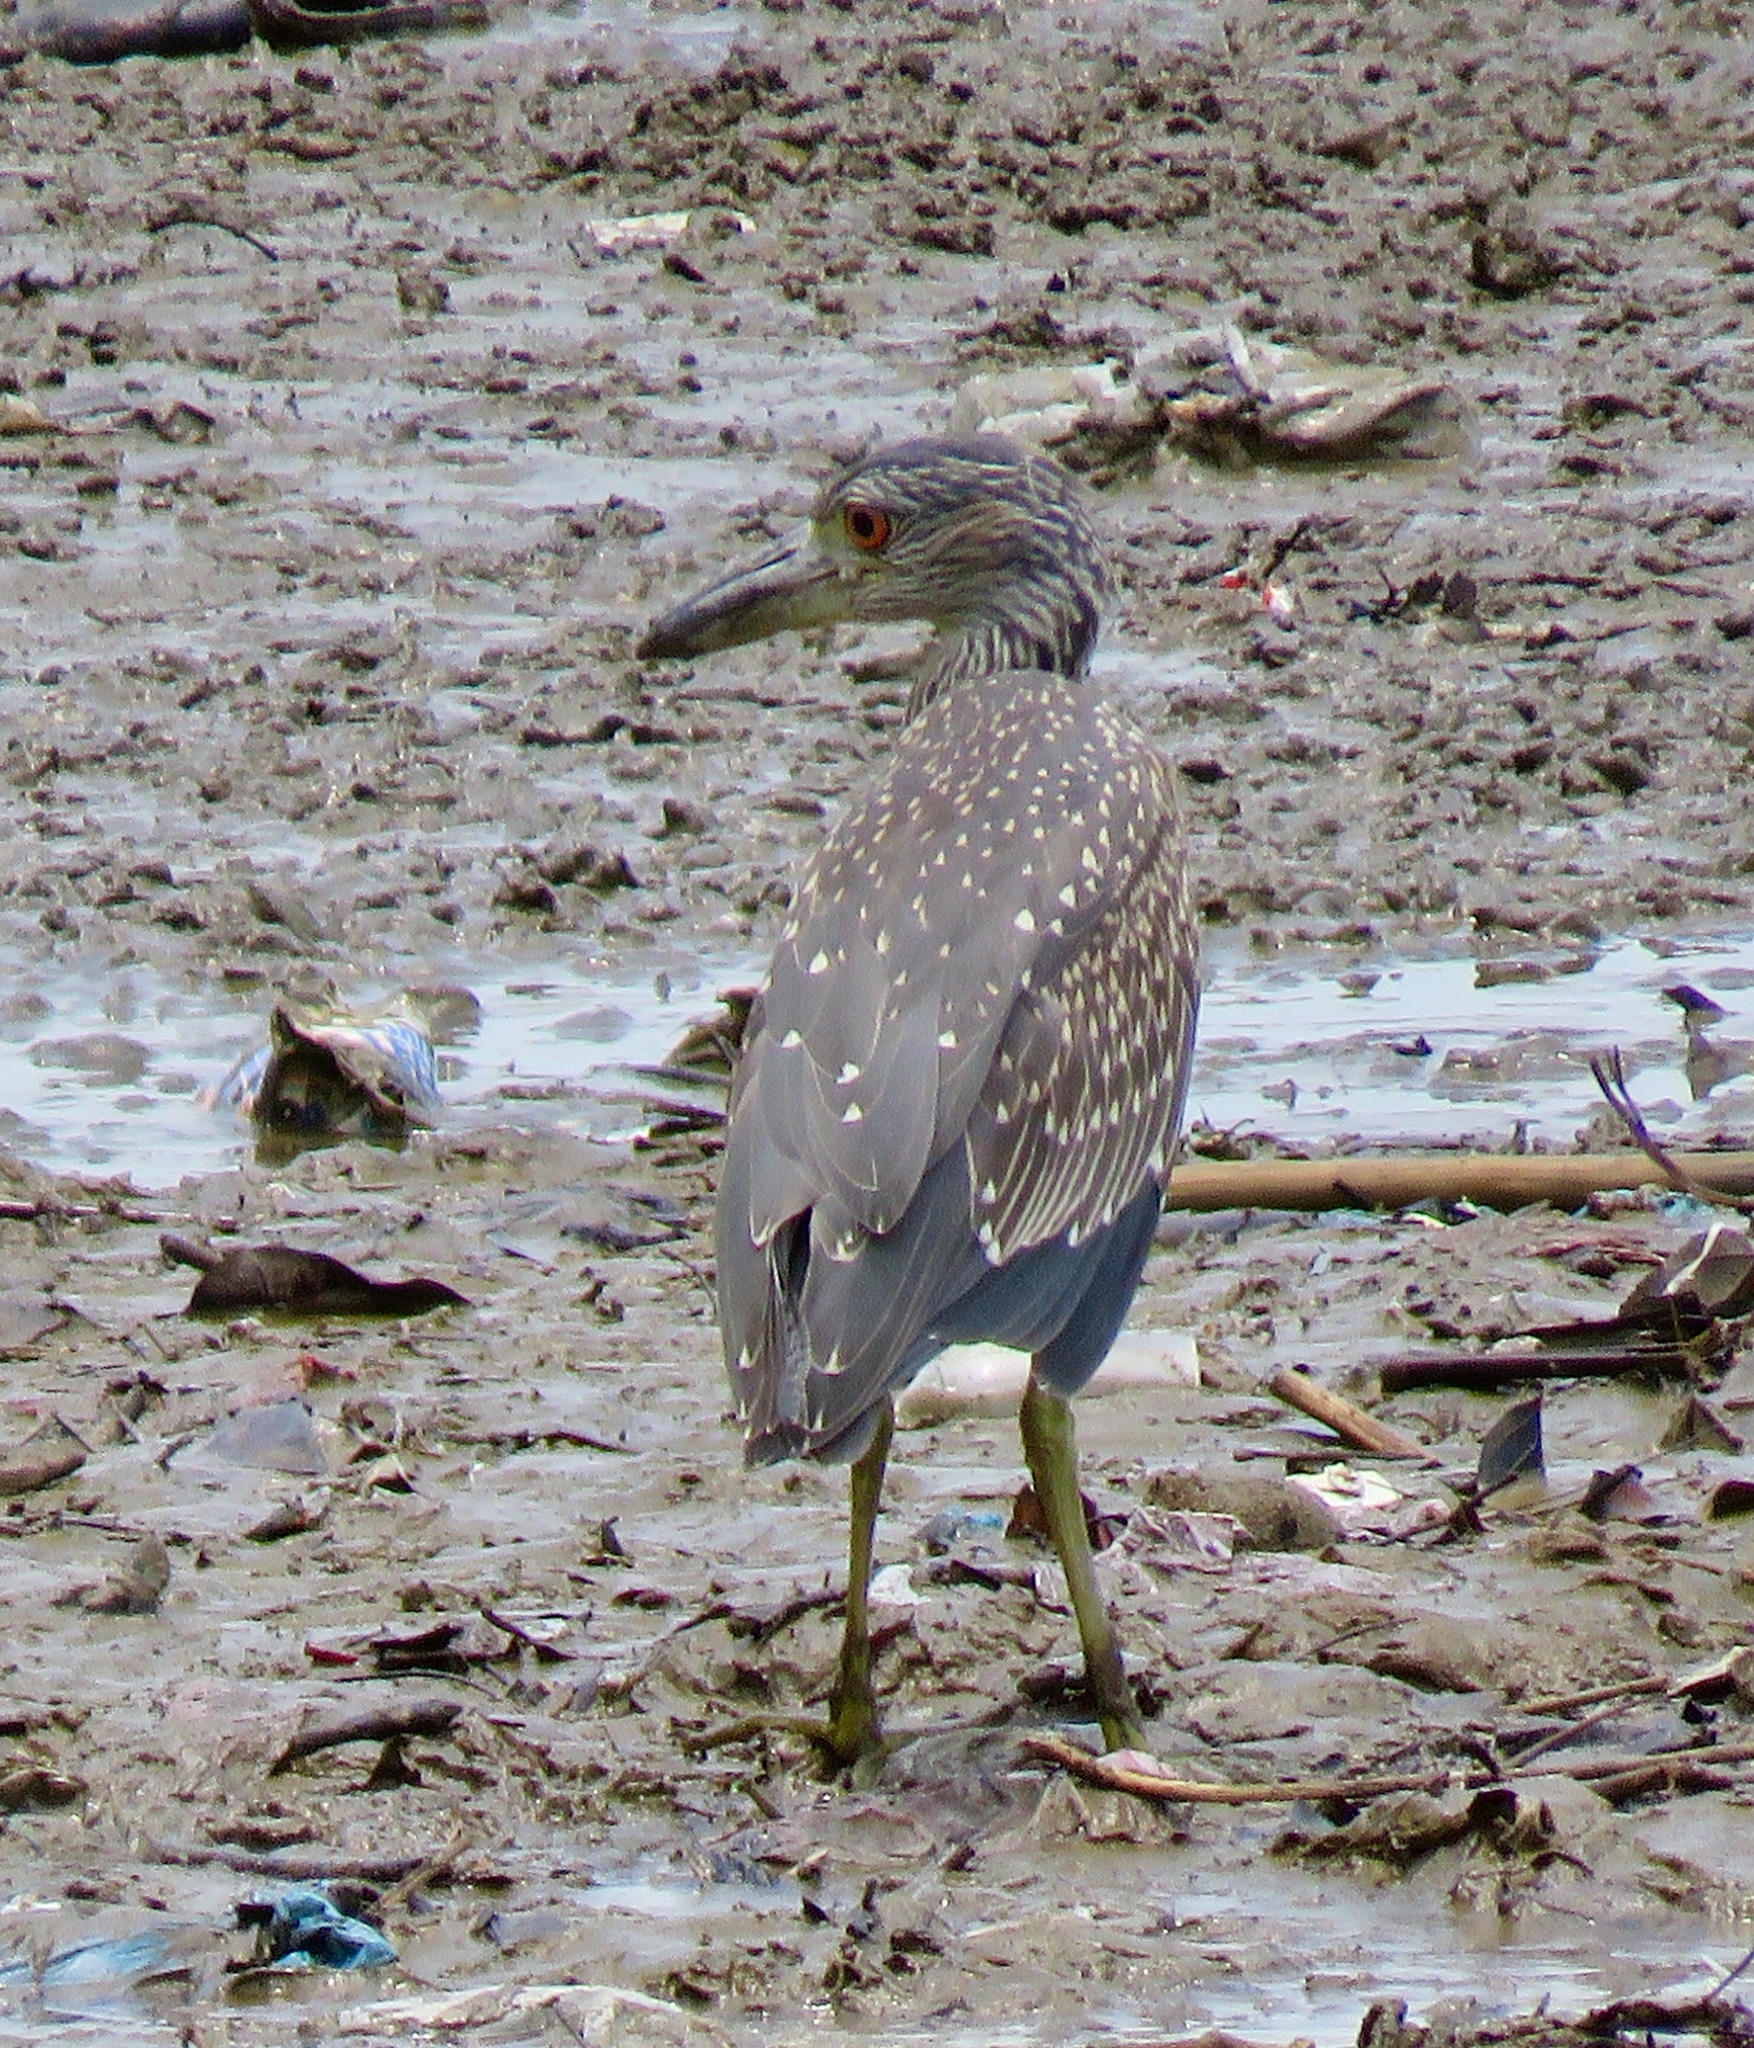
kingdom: Animalia
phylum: Chordata
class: Aves
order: Pelecaniformes
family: Ardeidae
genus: Nyctanassa
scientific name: Nyctanassa violacea
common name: Yellow-crowned night heron
